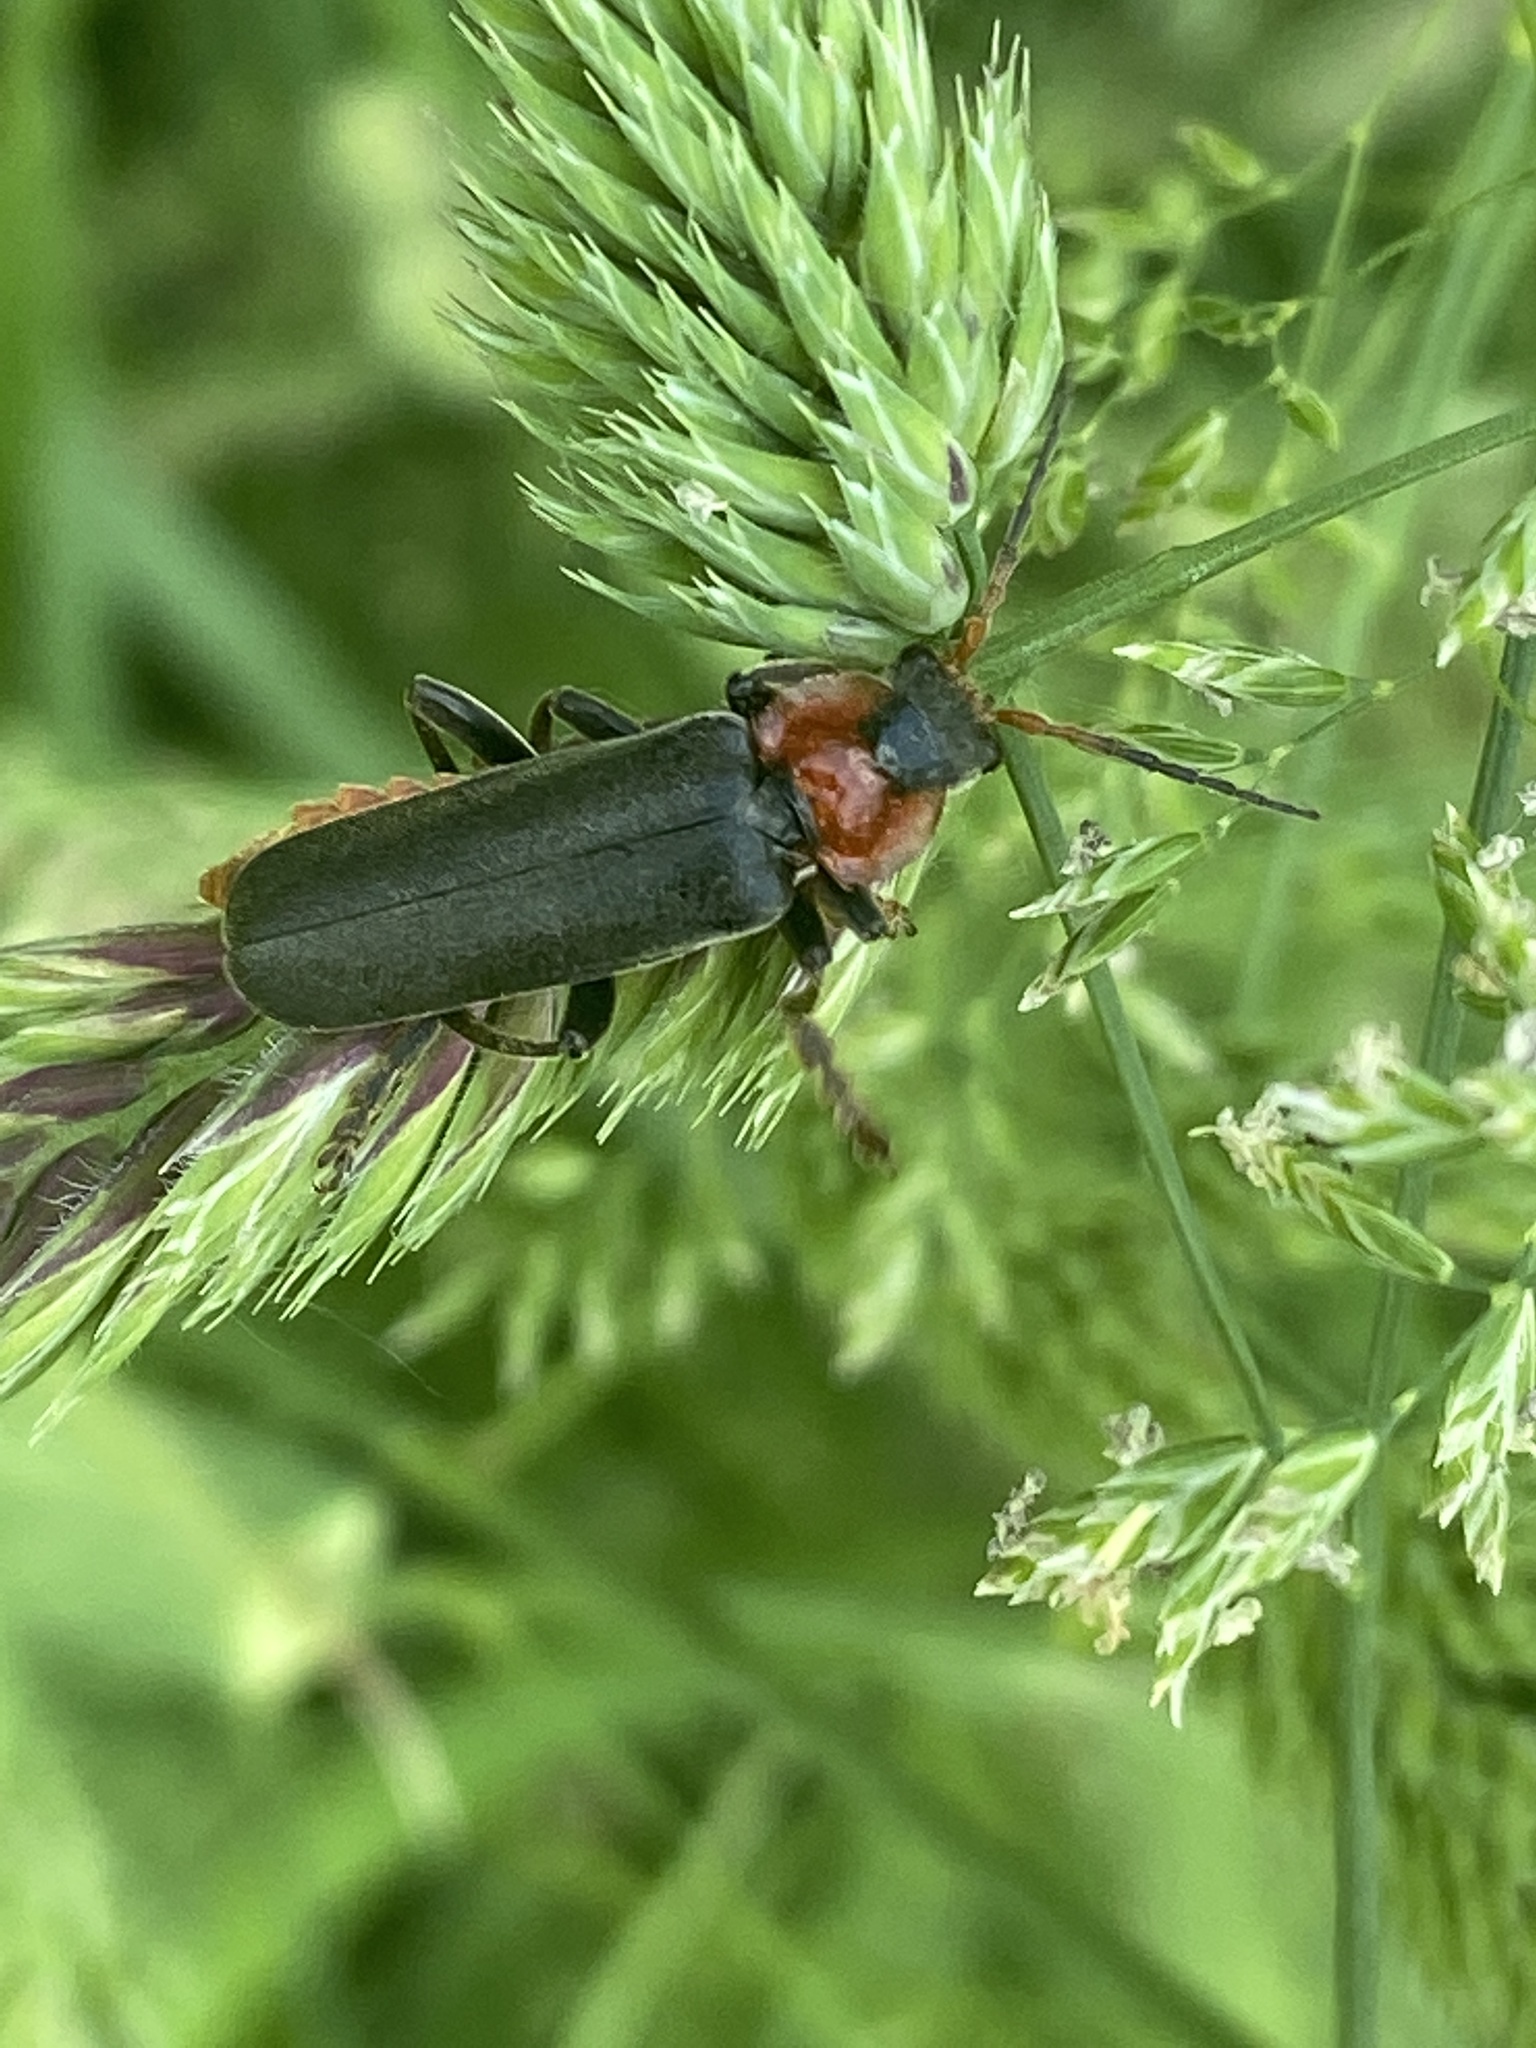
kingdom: Animalia
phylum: Arthropoda
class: Insecta
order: Coleoptera
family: Cantharidae
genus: Cantharis
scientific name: Cantharis fusca
